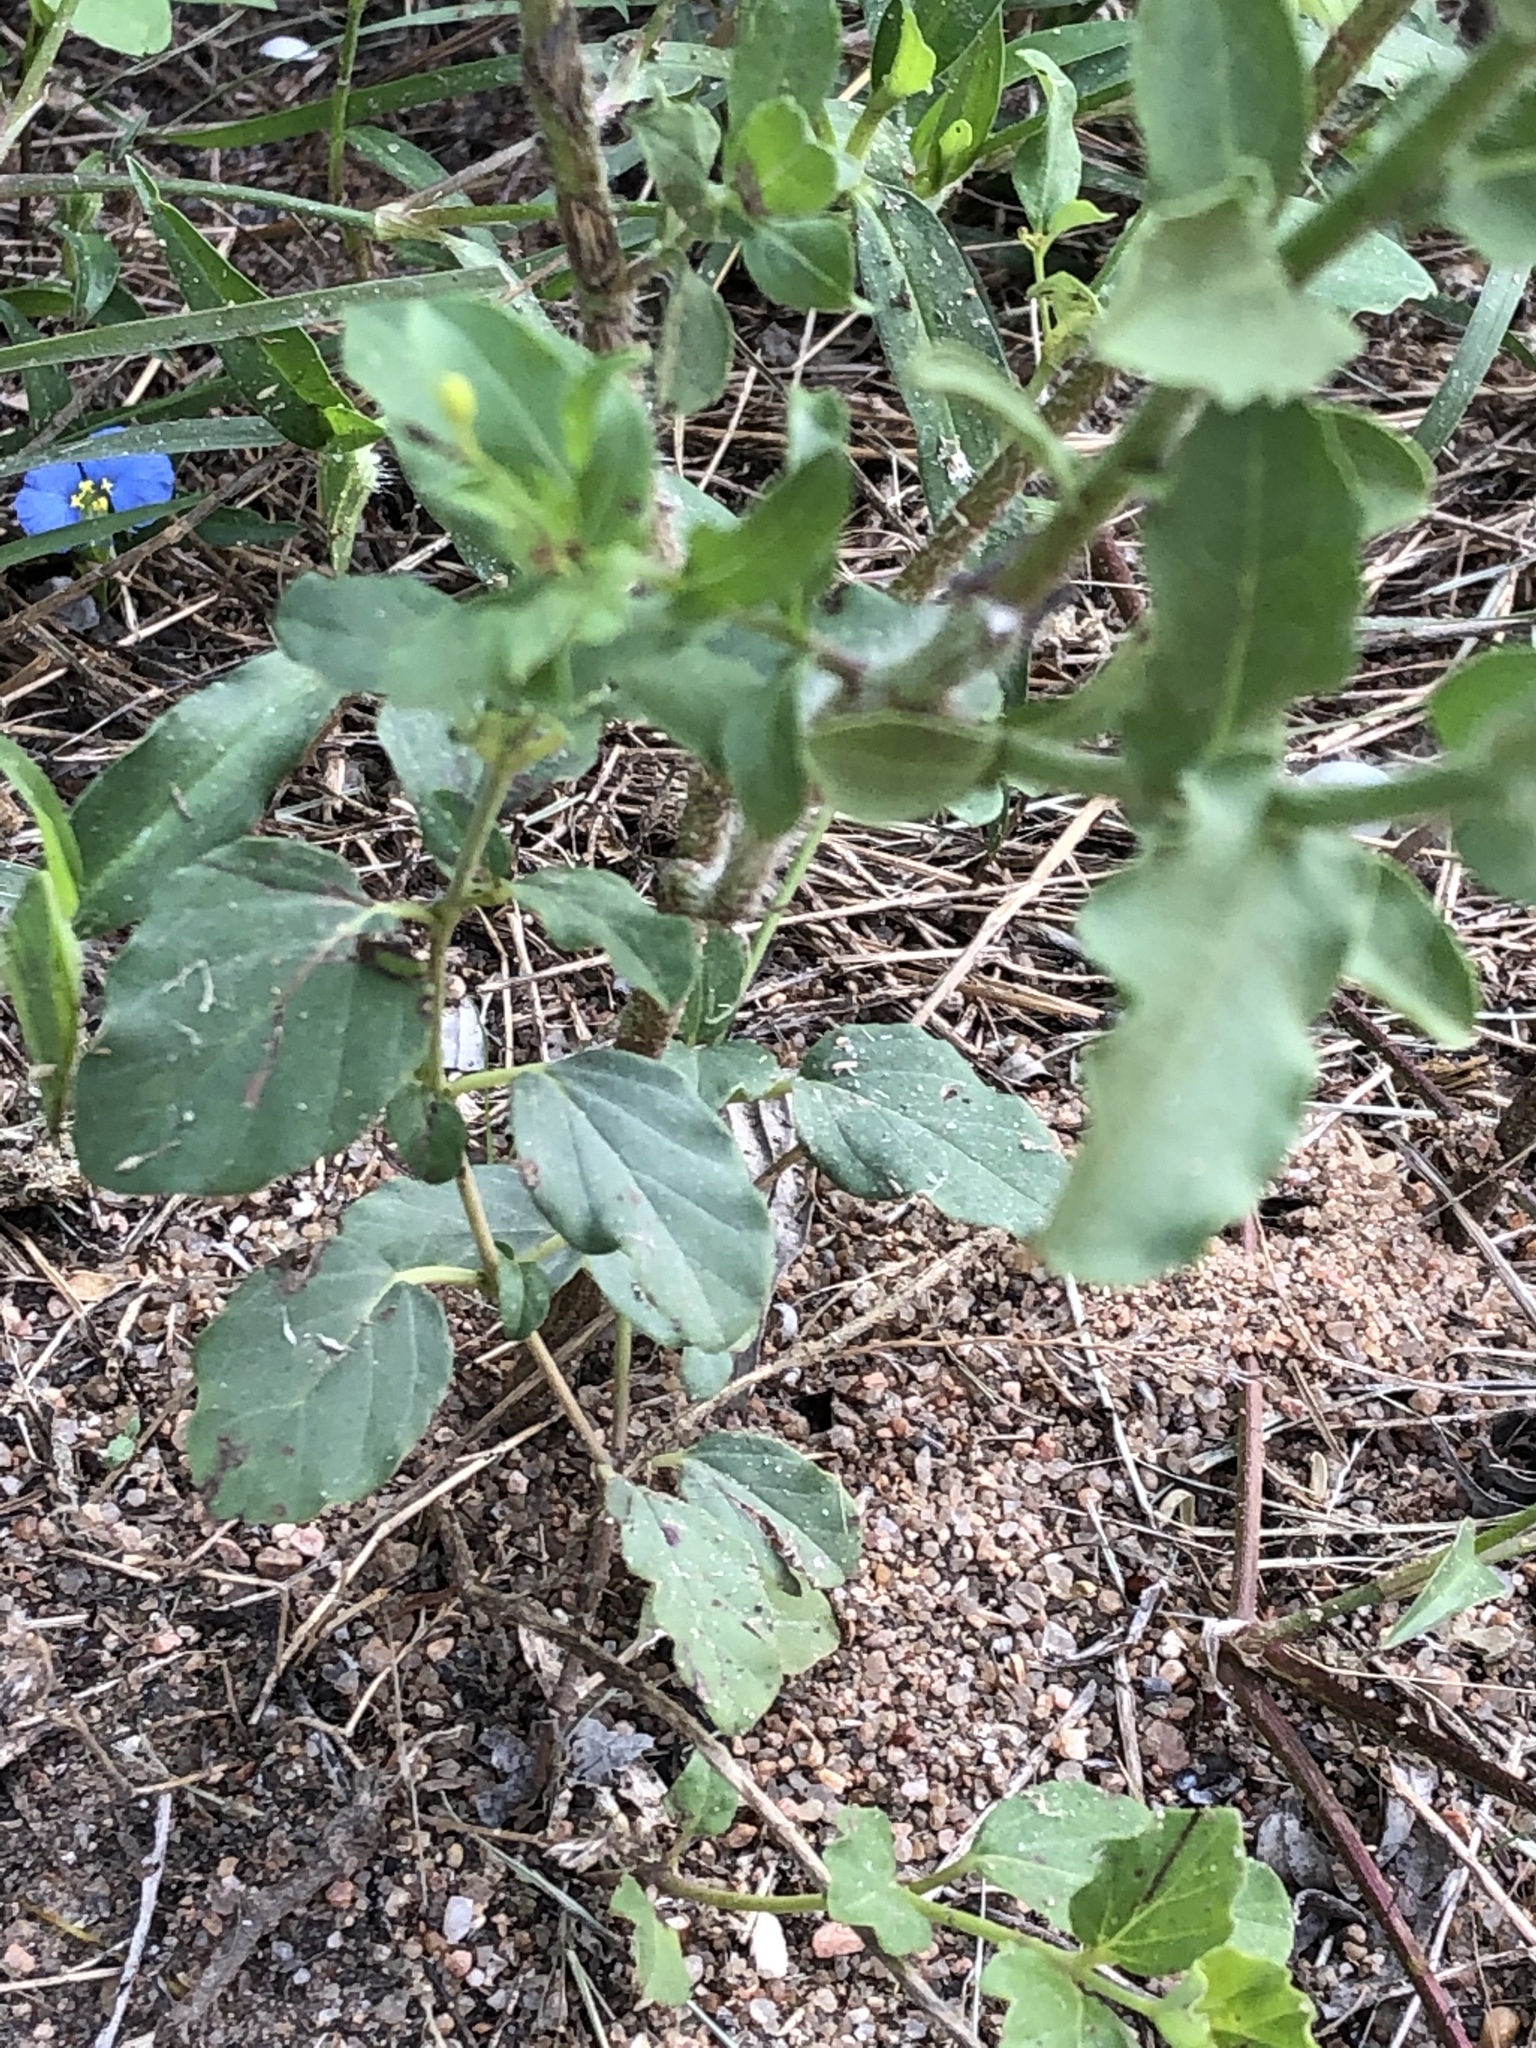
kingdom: Plantae
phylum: Tracheophyta
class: Magnoliopsida
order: Asterales
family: Asteraceae
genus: Heterotheca
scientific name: Heterotheca subaxillaris
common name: Camphorweed
